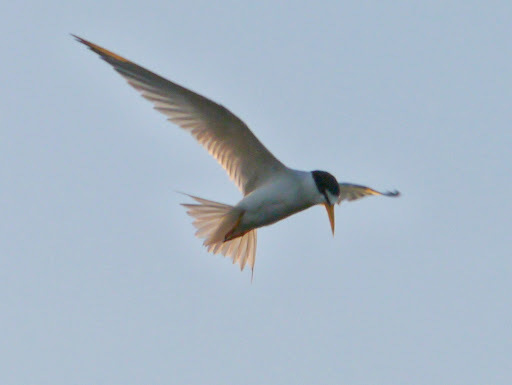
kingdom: Animalia
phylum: Chordata
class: Aves
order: Charadriiformes
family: Laridae
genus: Sternula
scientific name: Sternula antillarum
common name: Least tern
